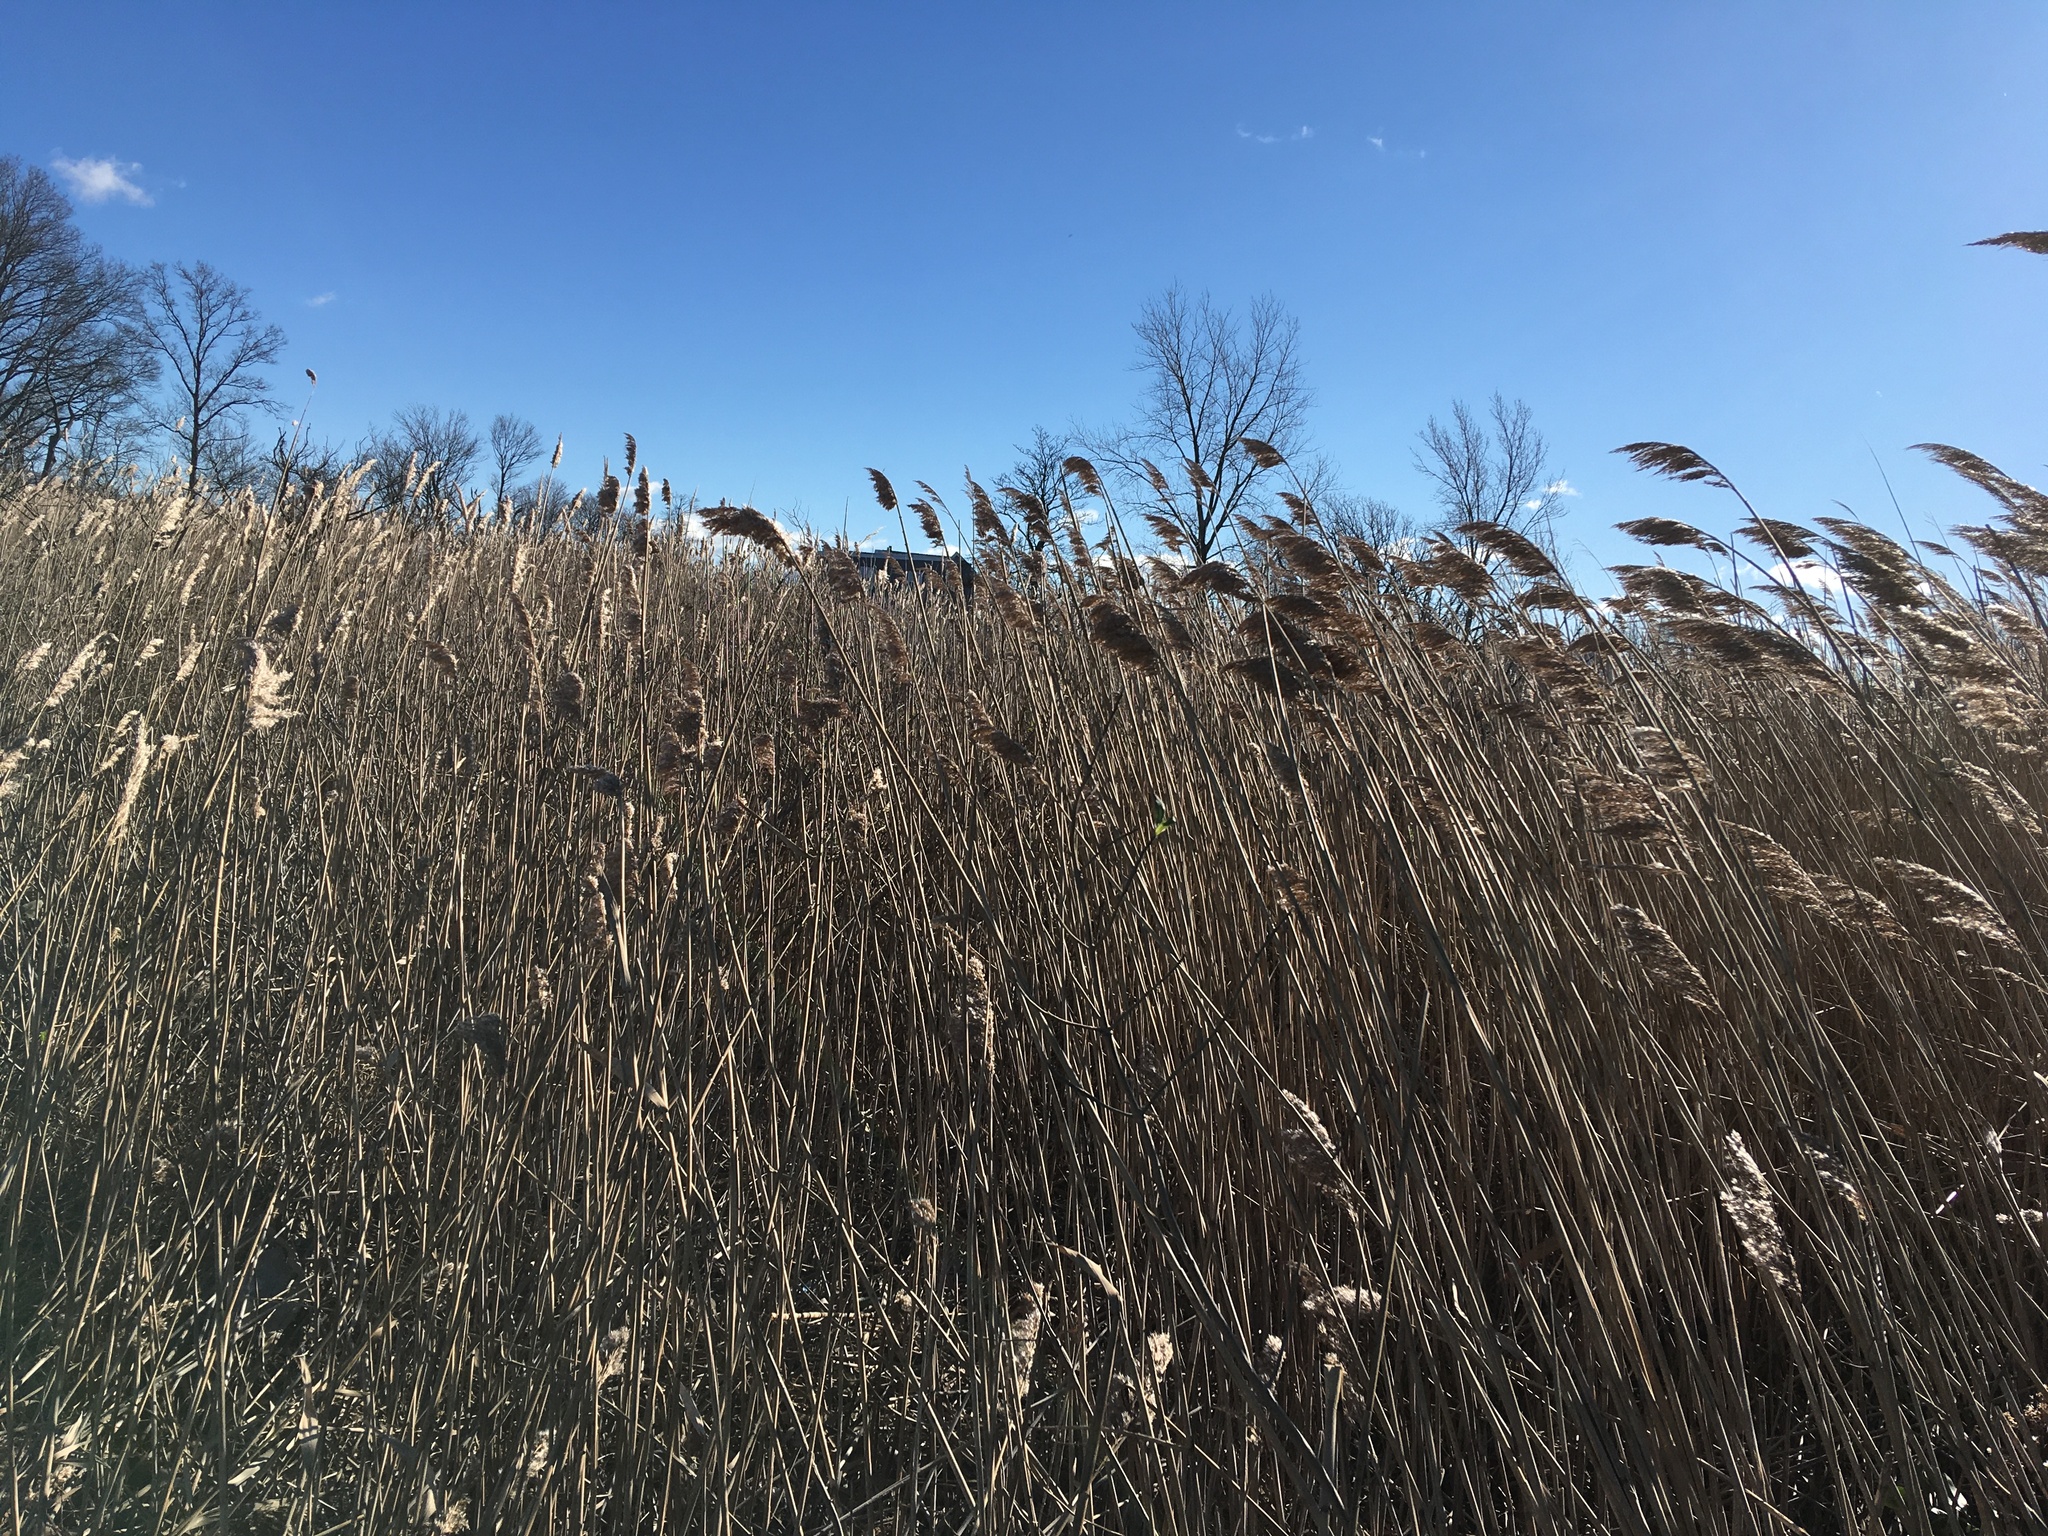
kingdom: Plantae
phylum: Tracheophyta
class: Liliopsida
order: Poales
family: Poaceae
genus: Phragmites
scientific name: Phragmites australis
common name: Common reed
